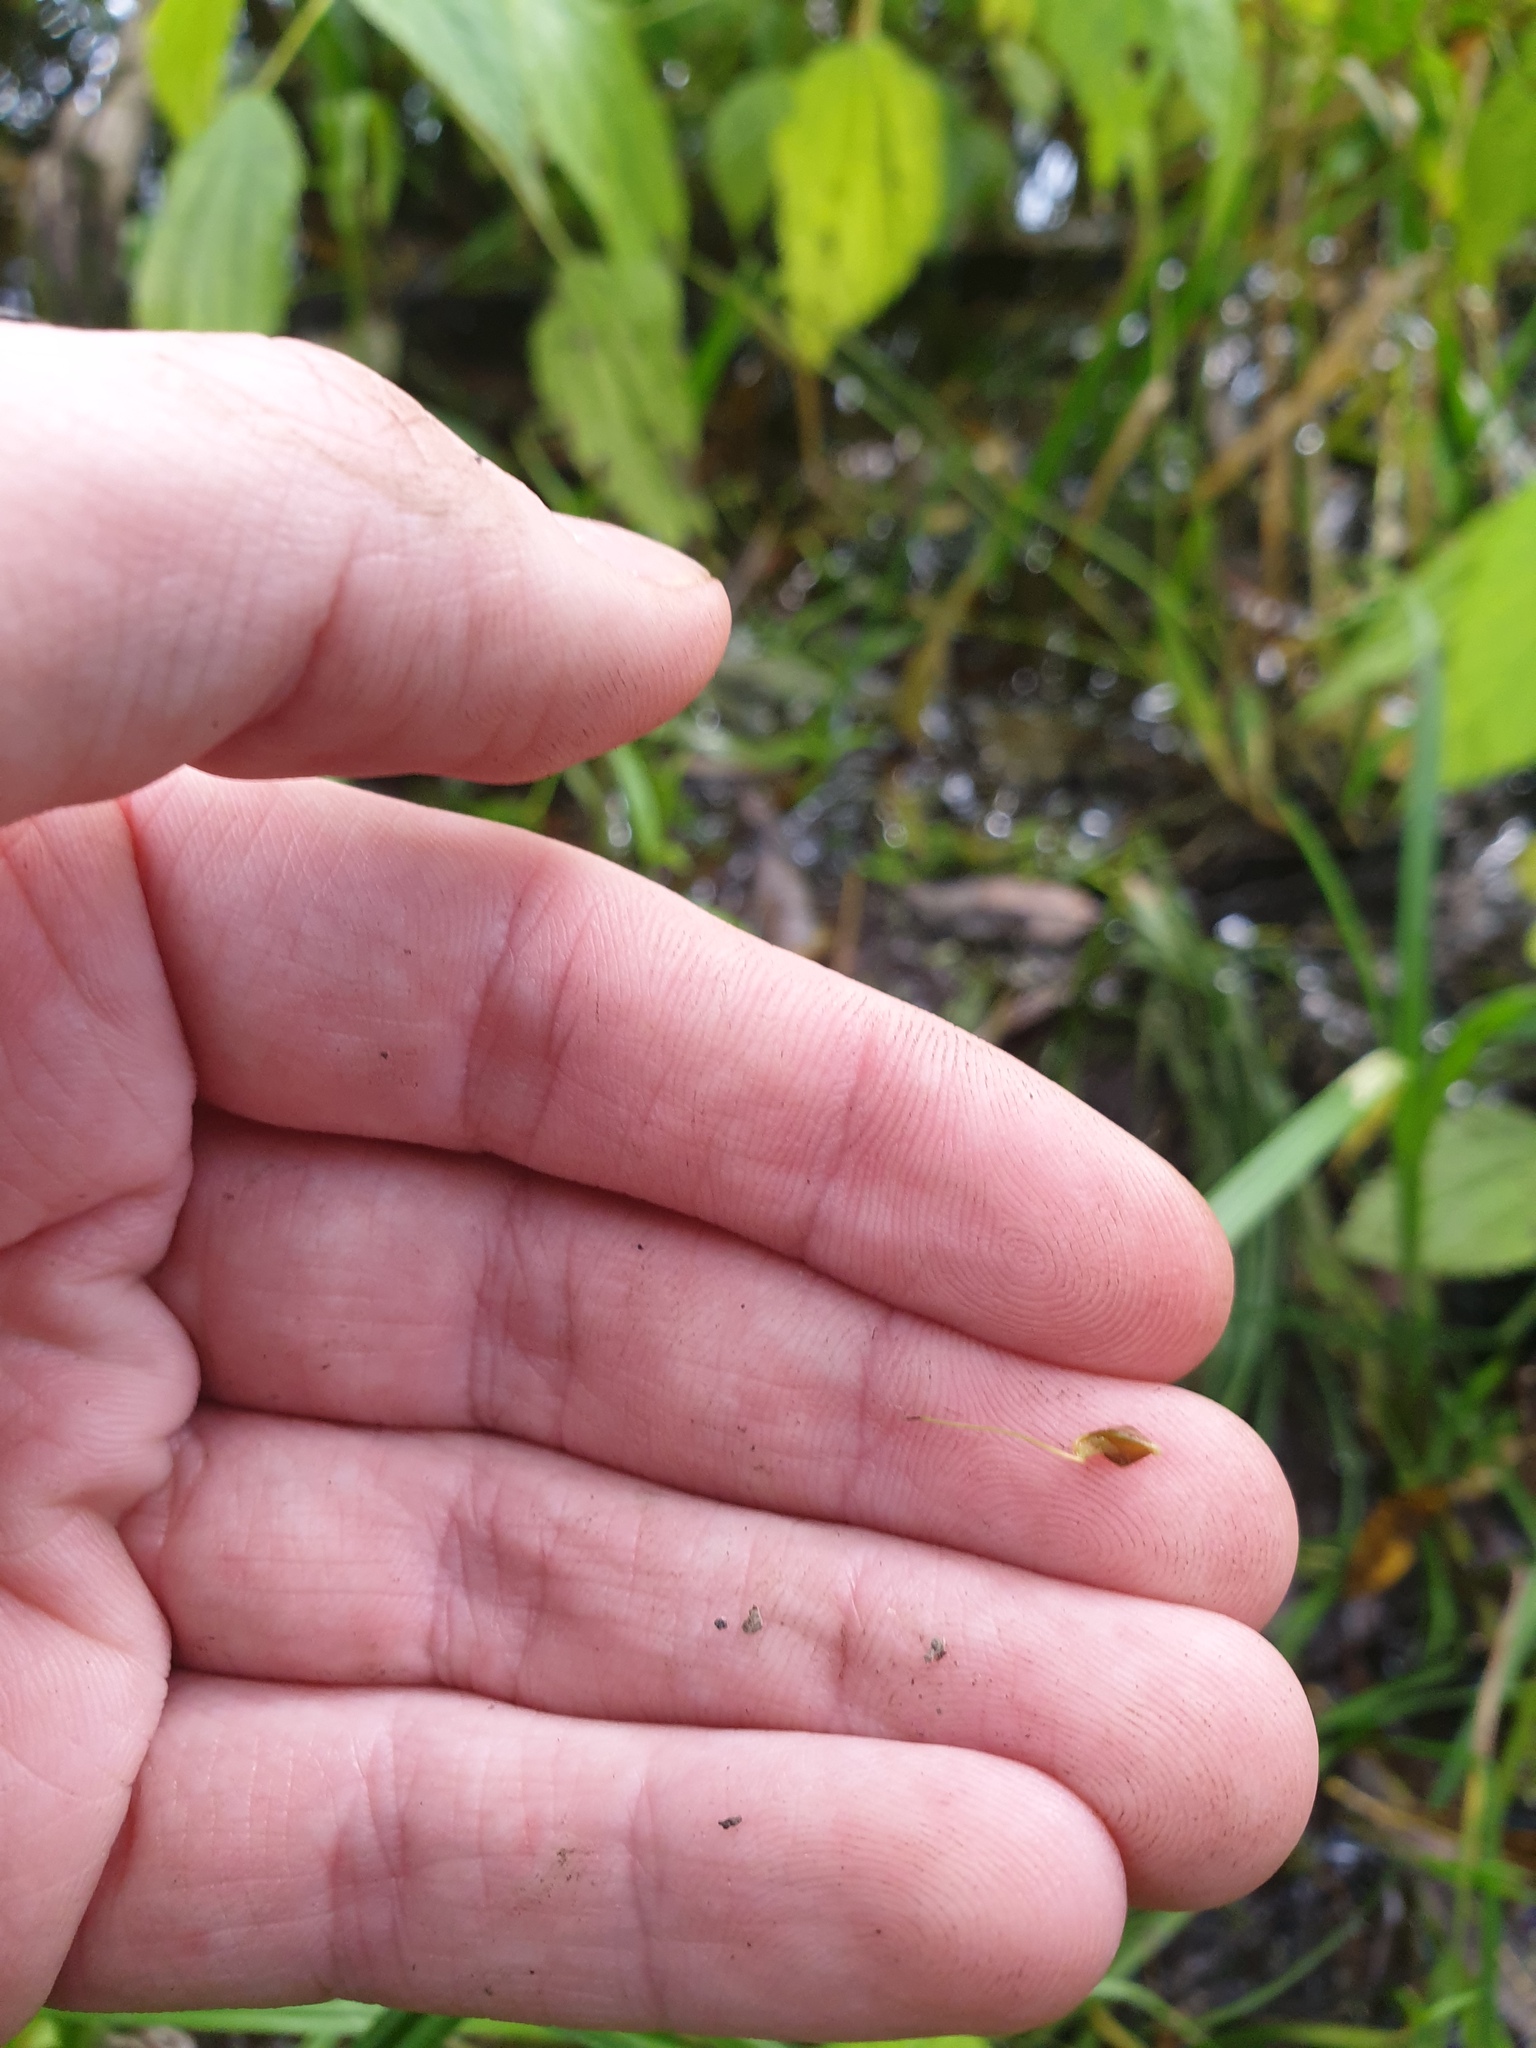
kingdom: Plantae
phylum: Tracheophyta
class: Liliopsida
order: Poales
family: Cyperaceae
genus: Carex
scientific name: Carex lupulina
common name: Hop sedge
